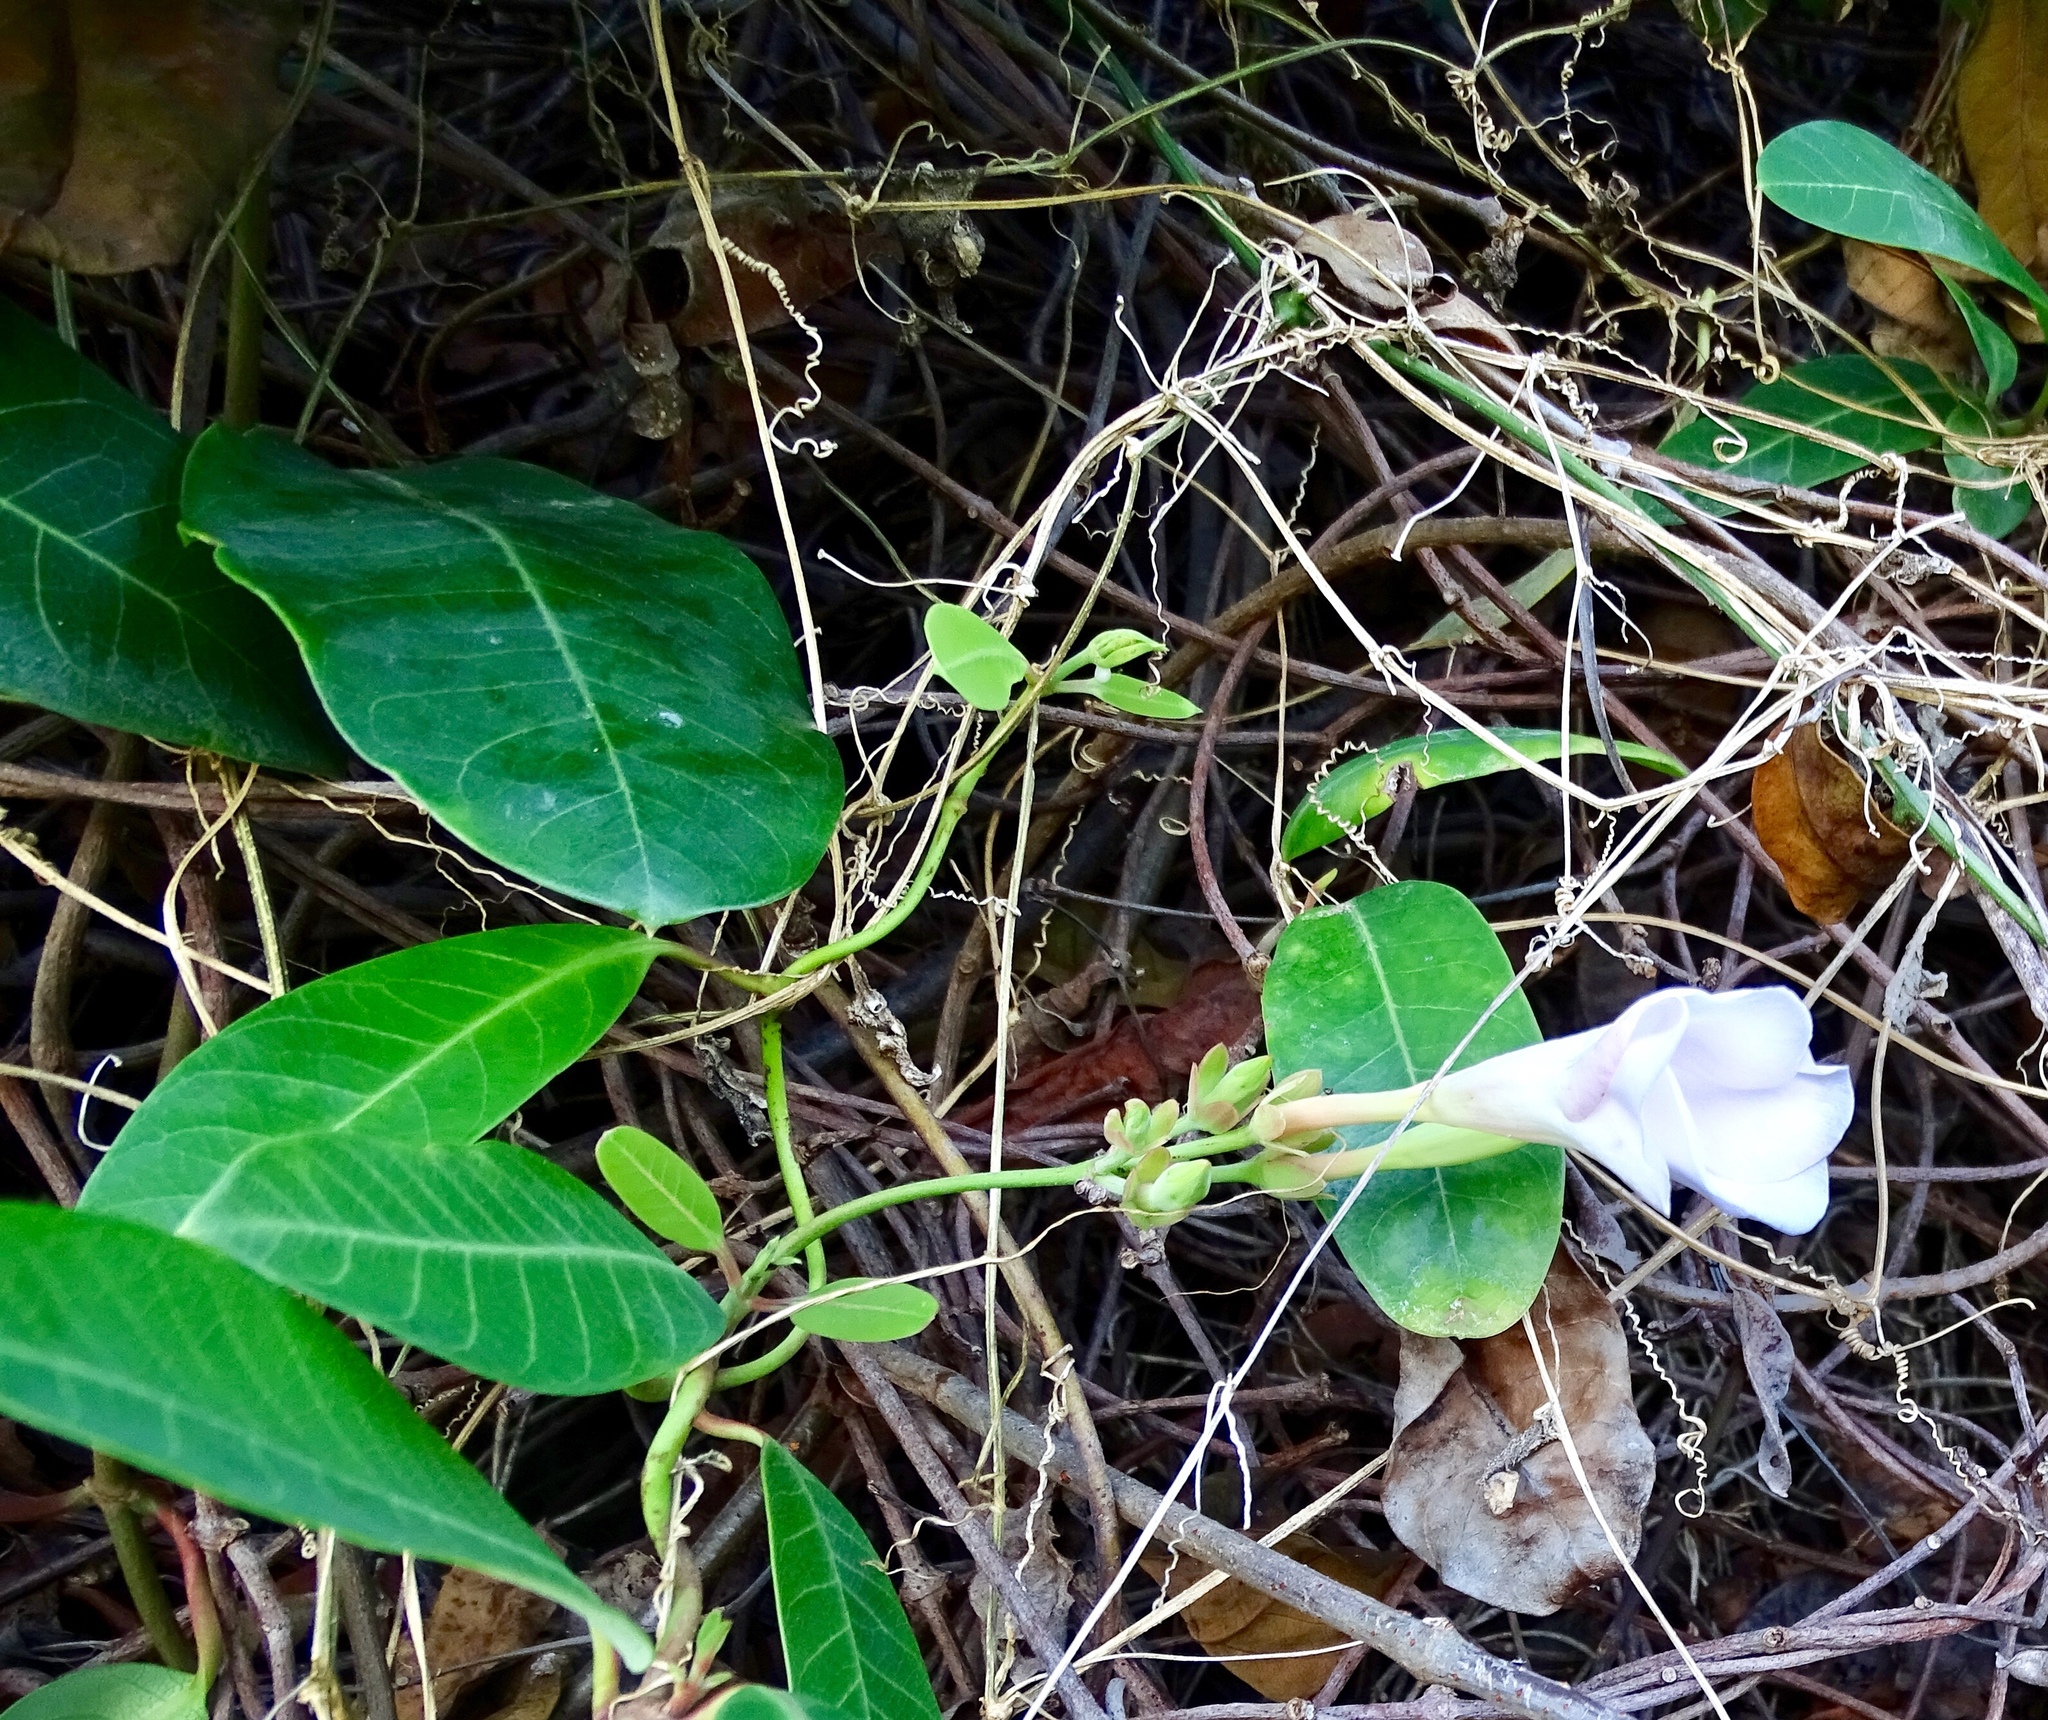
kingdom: Plantae
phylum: Tracheophyta
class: Magnoliopsida
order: Gentianales
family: Apocynaceae
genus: Rhabdadenia
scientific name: Rhabdadenia biflora
